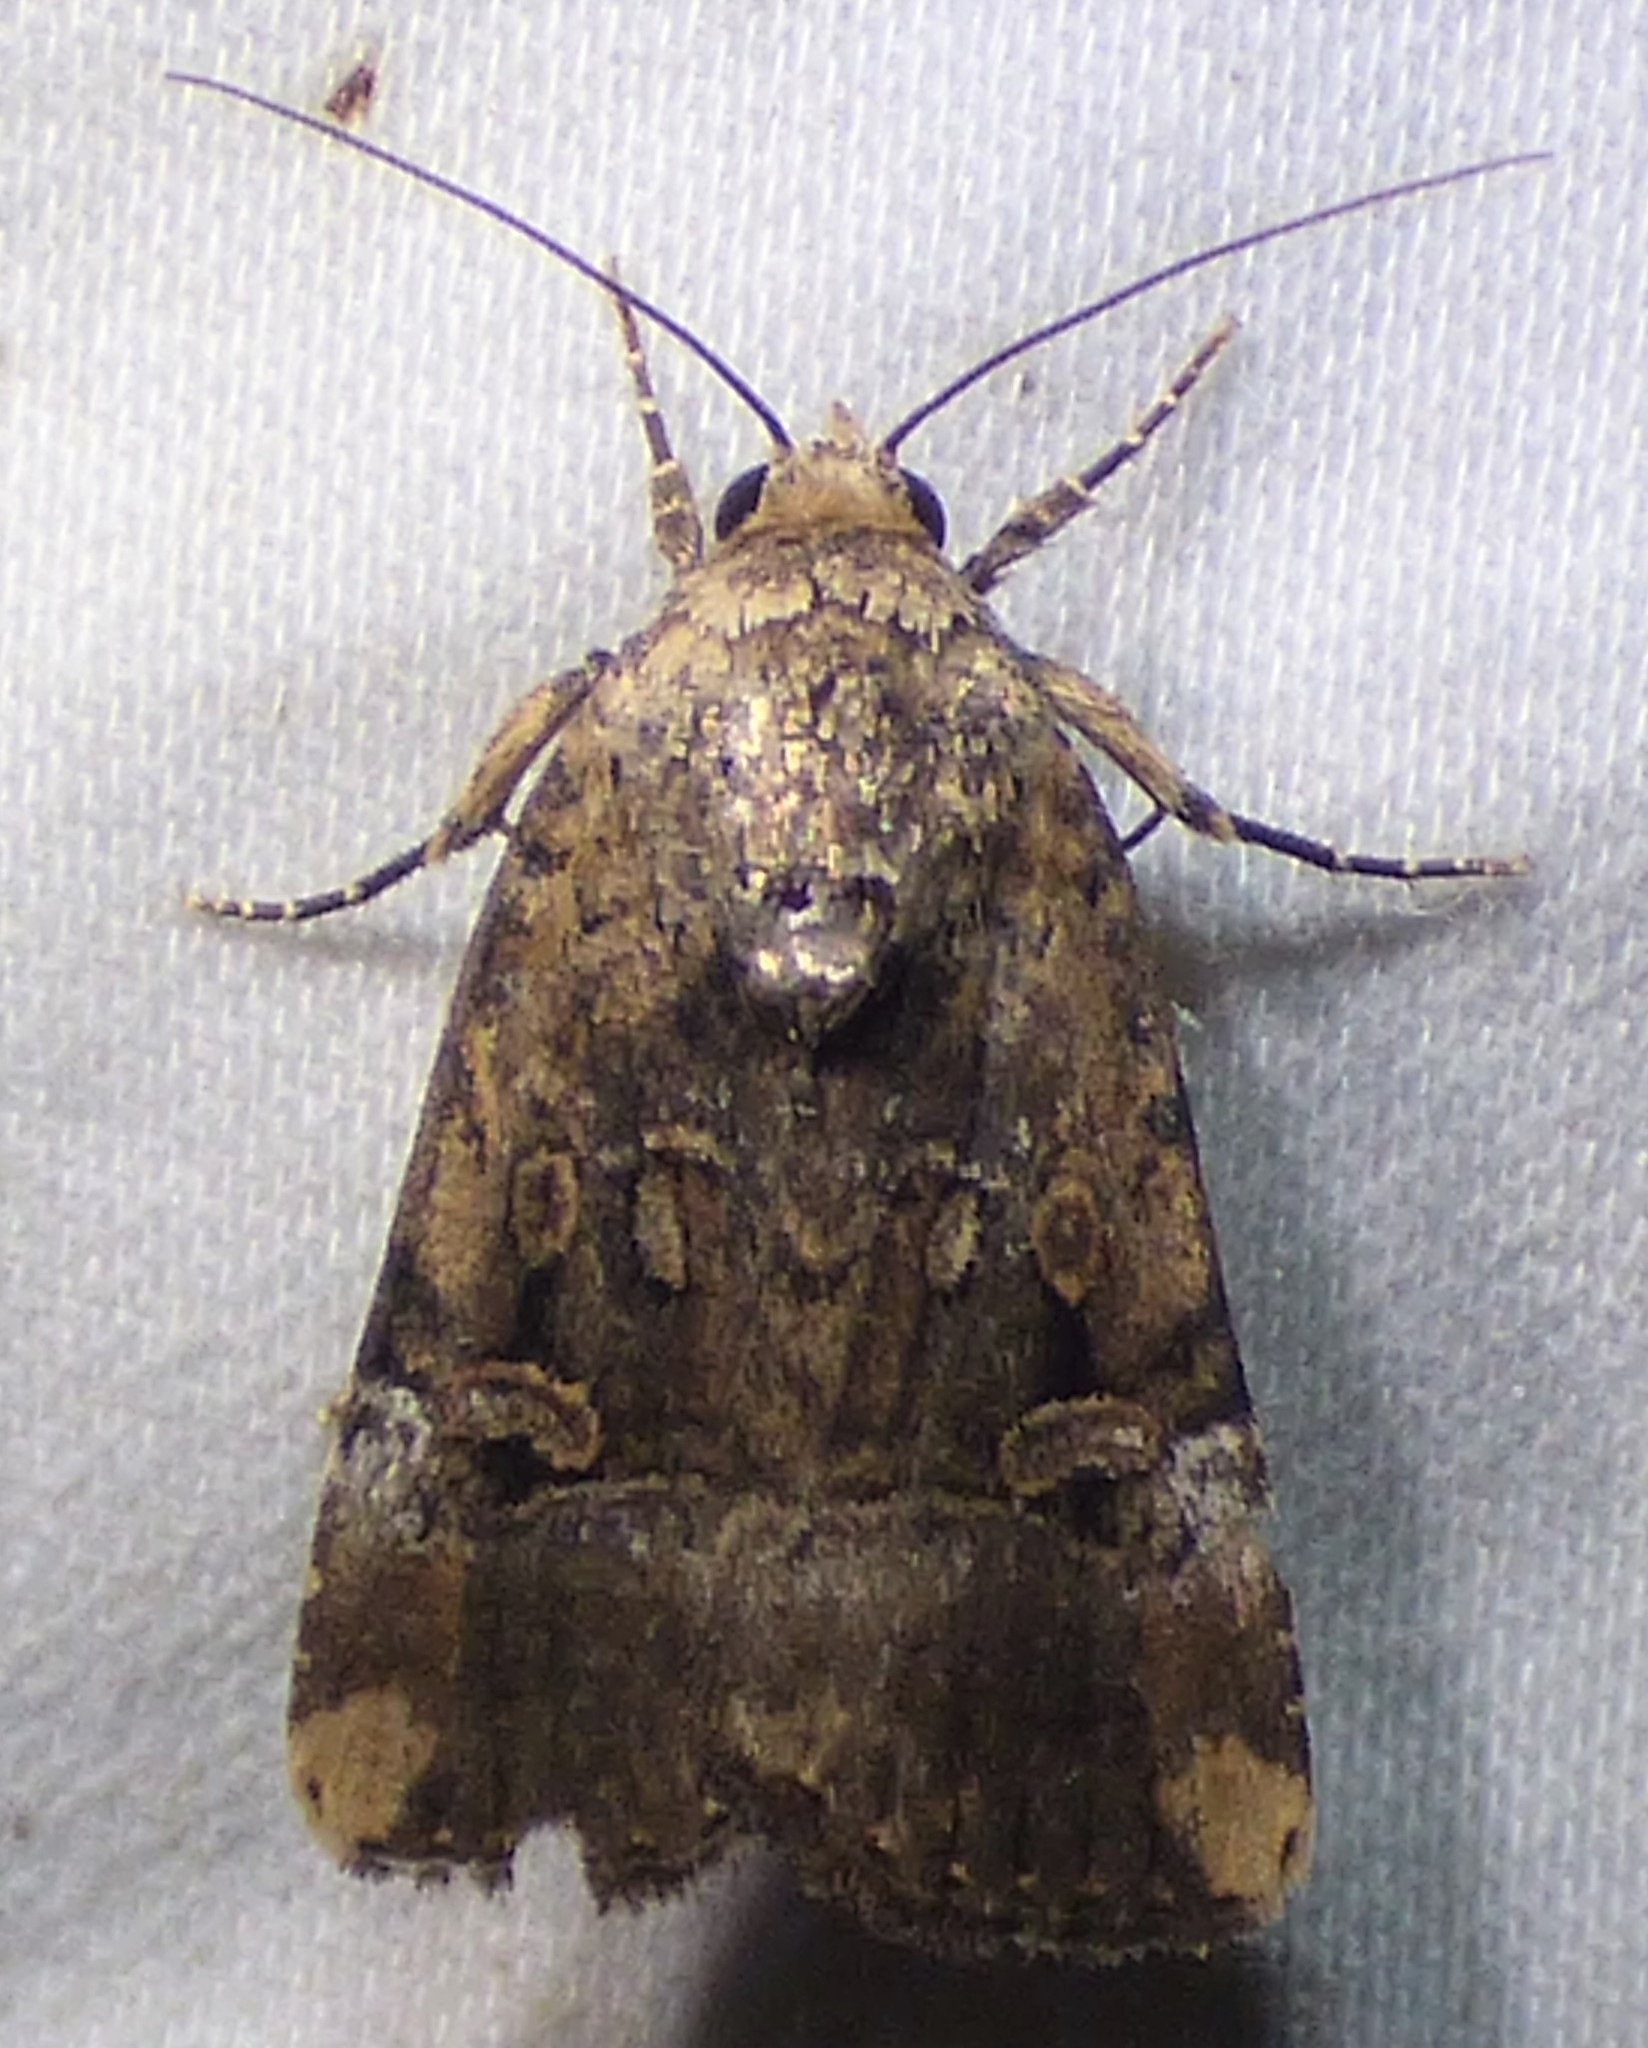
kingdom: Animalia
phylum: Arthropoda
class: Insecta
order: Lepidoptera
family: Noctuidae
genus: Elaphria
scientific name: Elaphria chalcedonia
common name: Chalcedony midget
